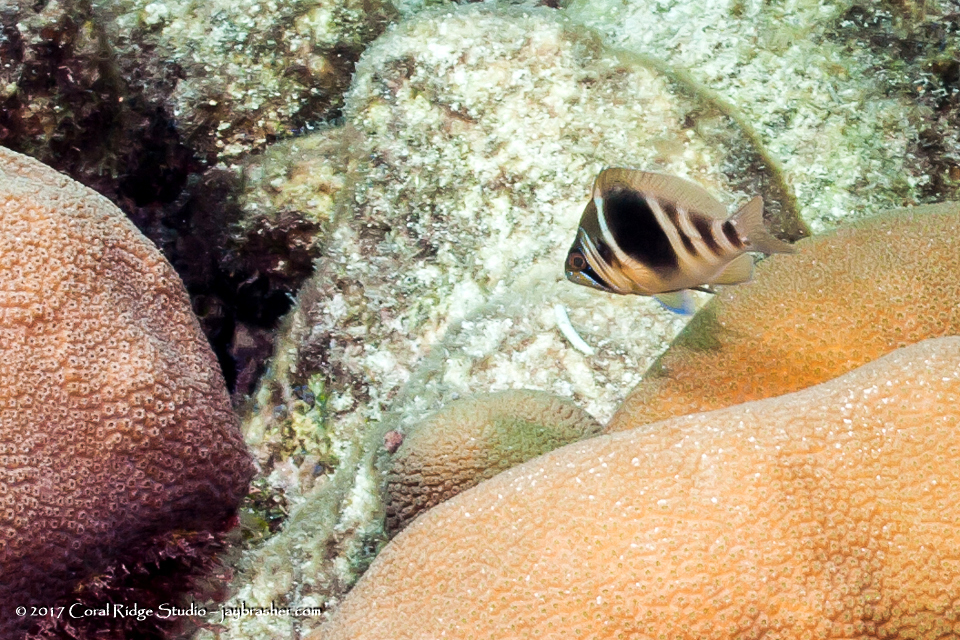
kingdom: Animalia
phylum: Chordata
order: Perciformes
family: Serranidae
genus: Hypoplectrus
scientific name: Hypoplectrus puella
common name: Barred hamlet
